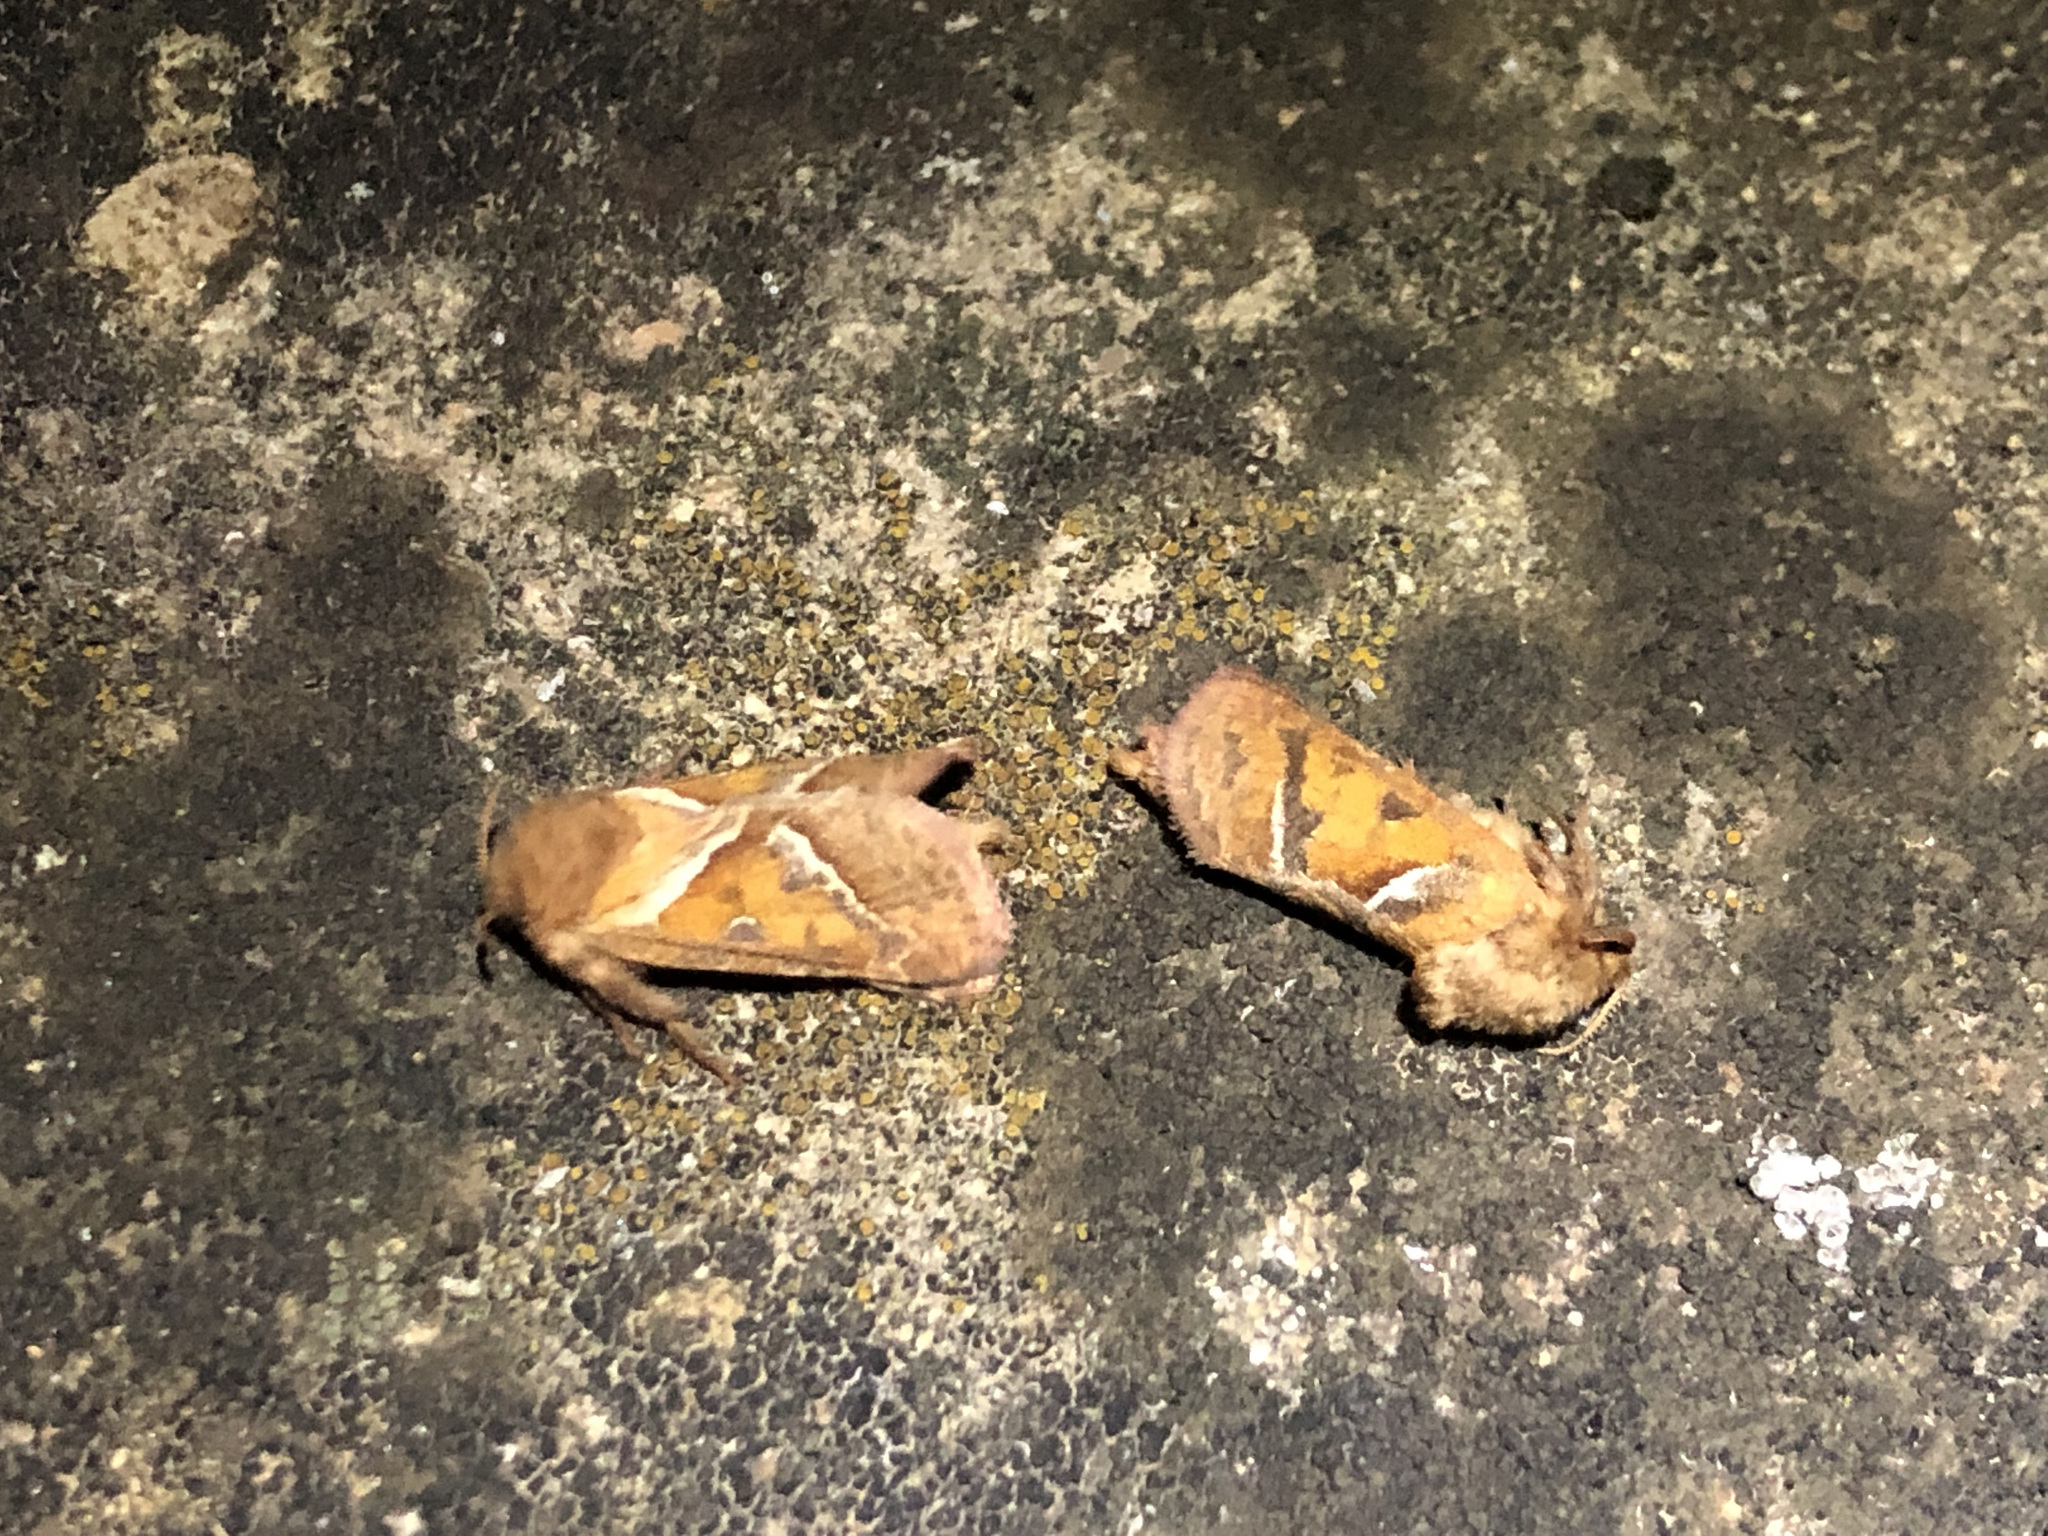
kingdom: Animalia
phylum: Arthropoda
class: Insecta
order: Lepidoptera
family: Hepialidae
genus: Triodia
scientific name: Triodia sylvina
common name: Orange swift
